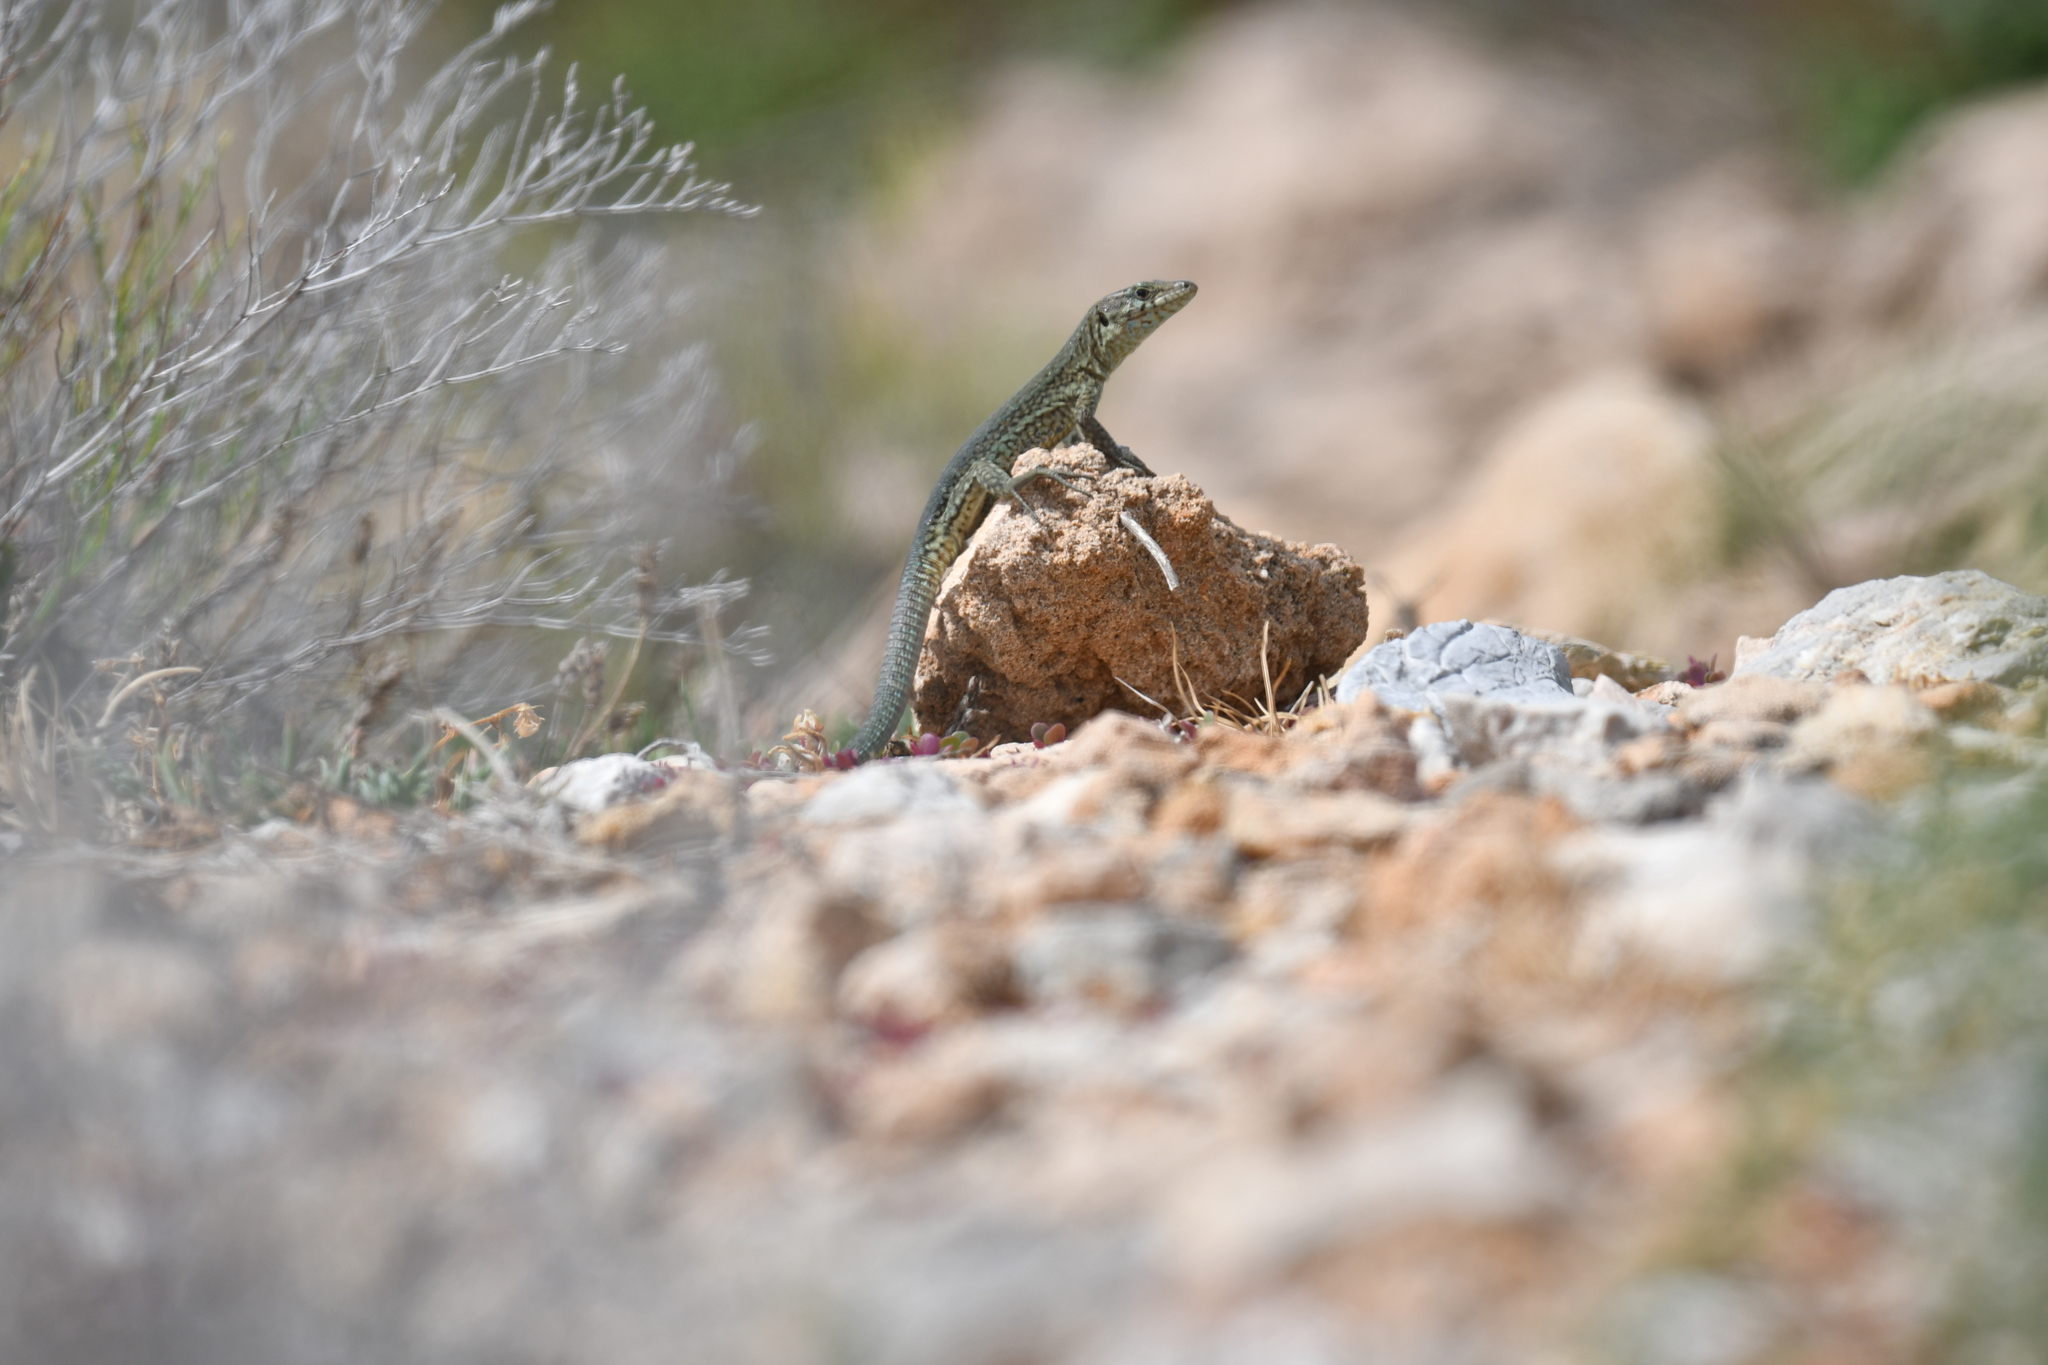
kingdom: Animalia
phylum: Chordata
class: Squamata
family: Lacertidae
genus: Podarcis
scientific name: Podarcis lilfordi
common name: Belearic lizard
